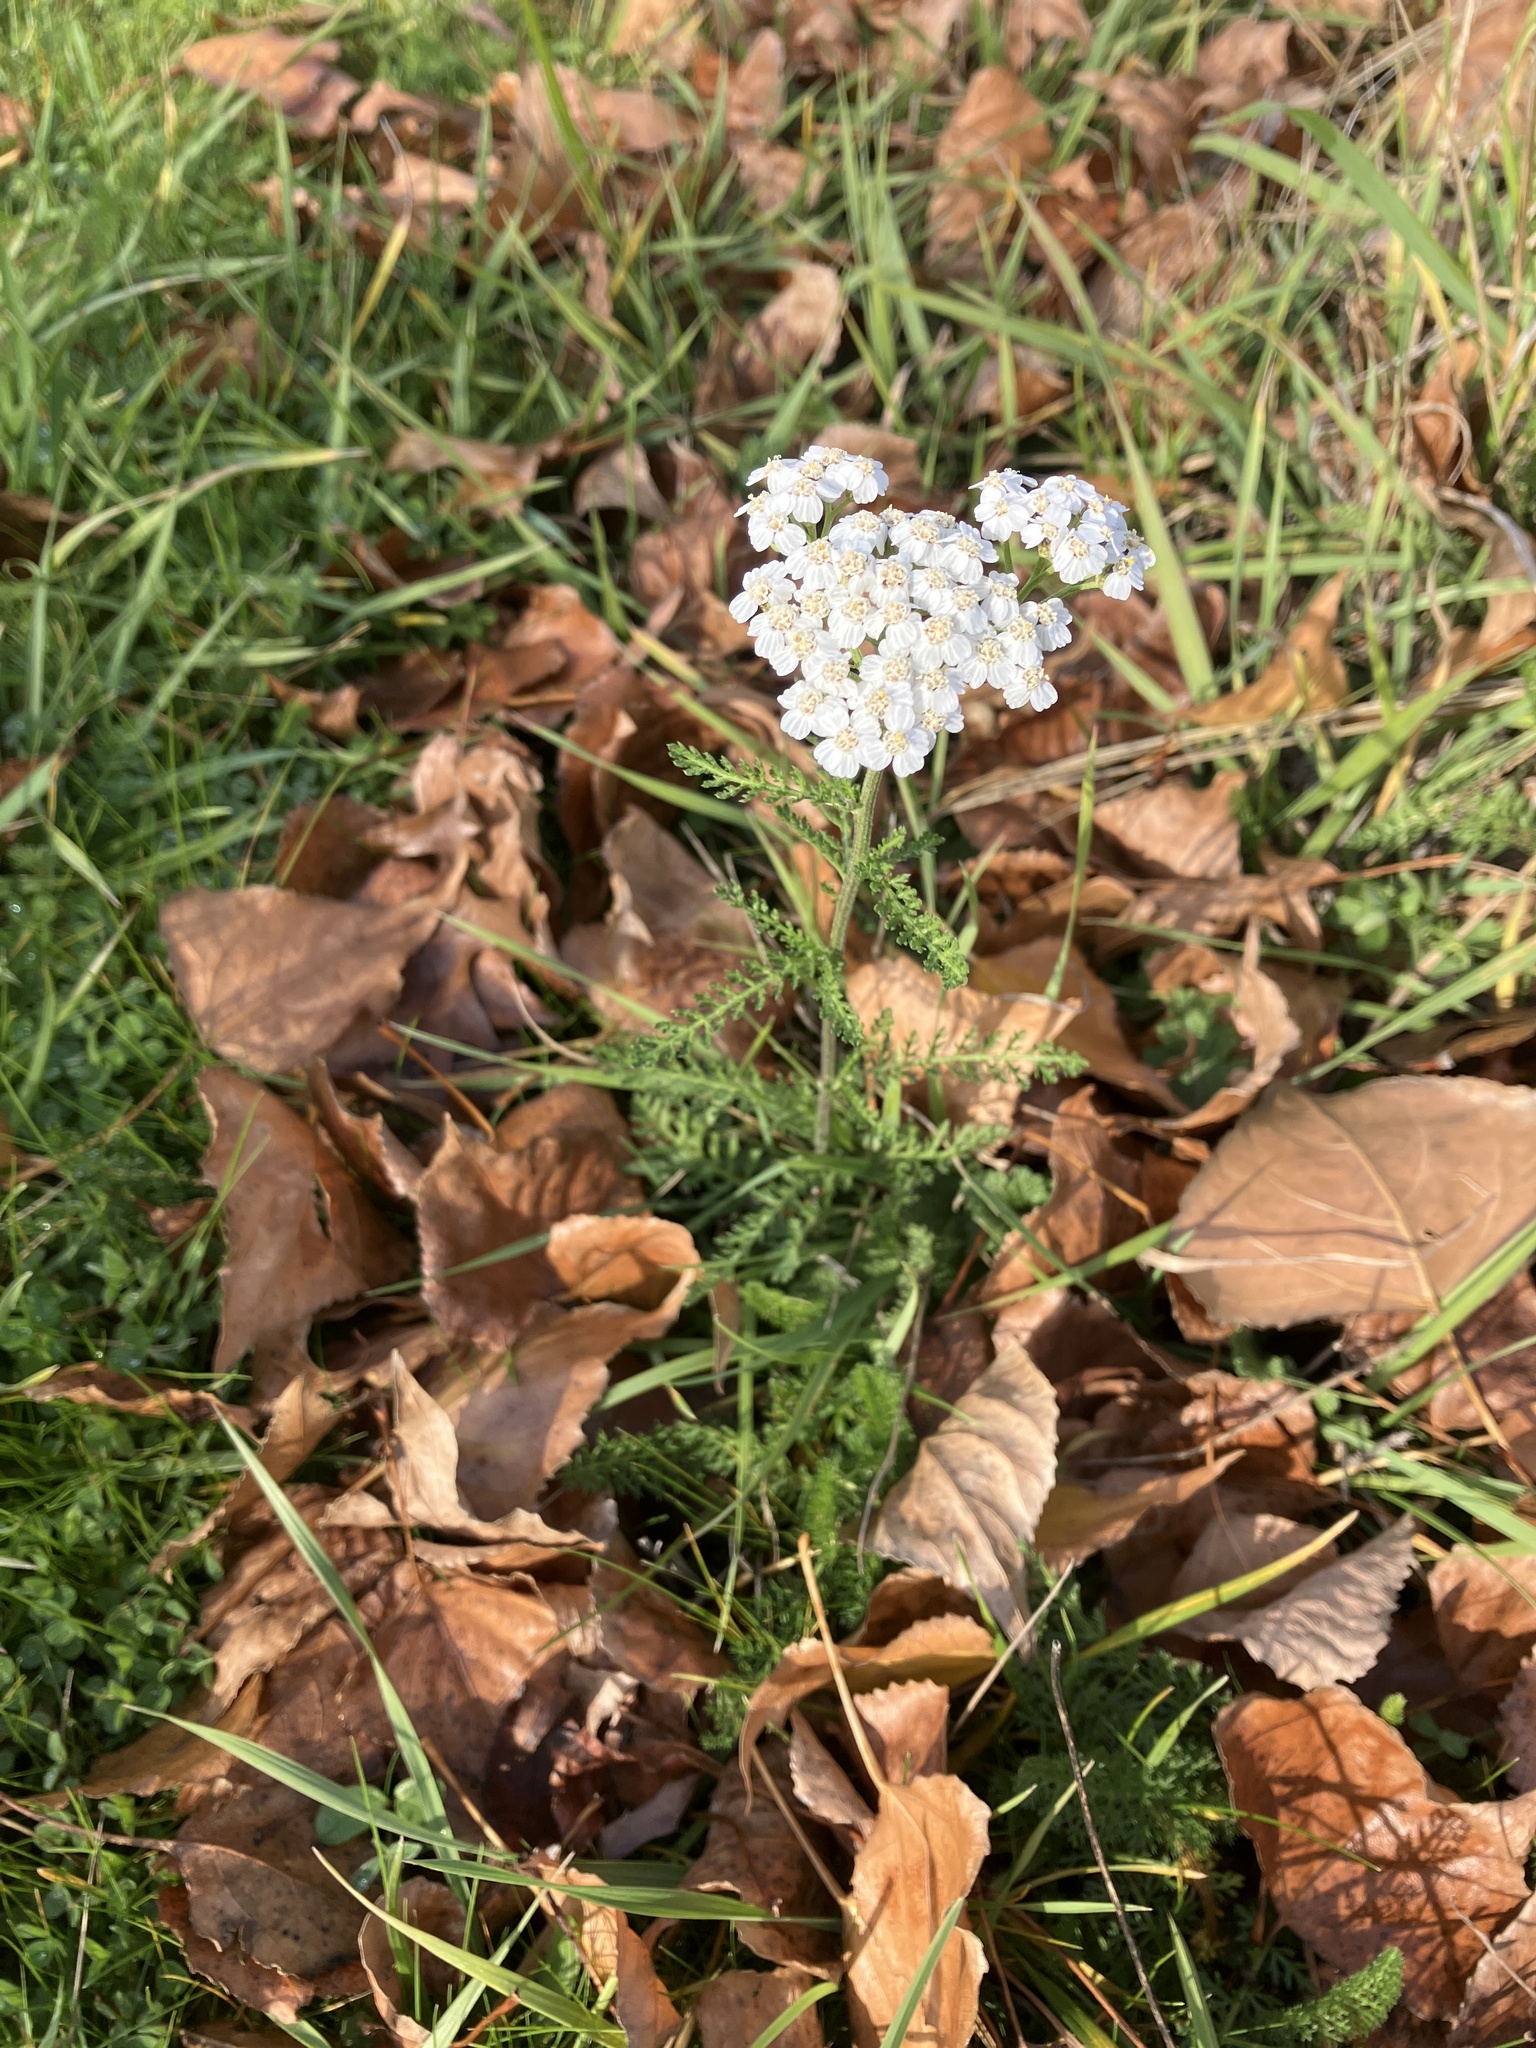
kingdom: Plantae
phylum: Tracheophyta
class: Magnoliopsida
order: Asterales
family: Asteraceae
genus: Achillea
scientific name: Achillea millefolium
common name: Yarrow
